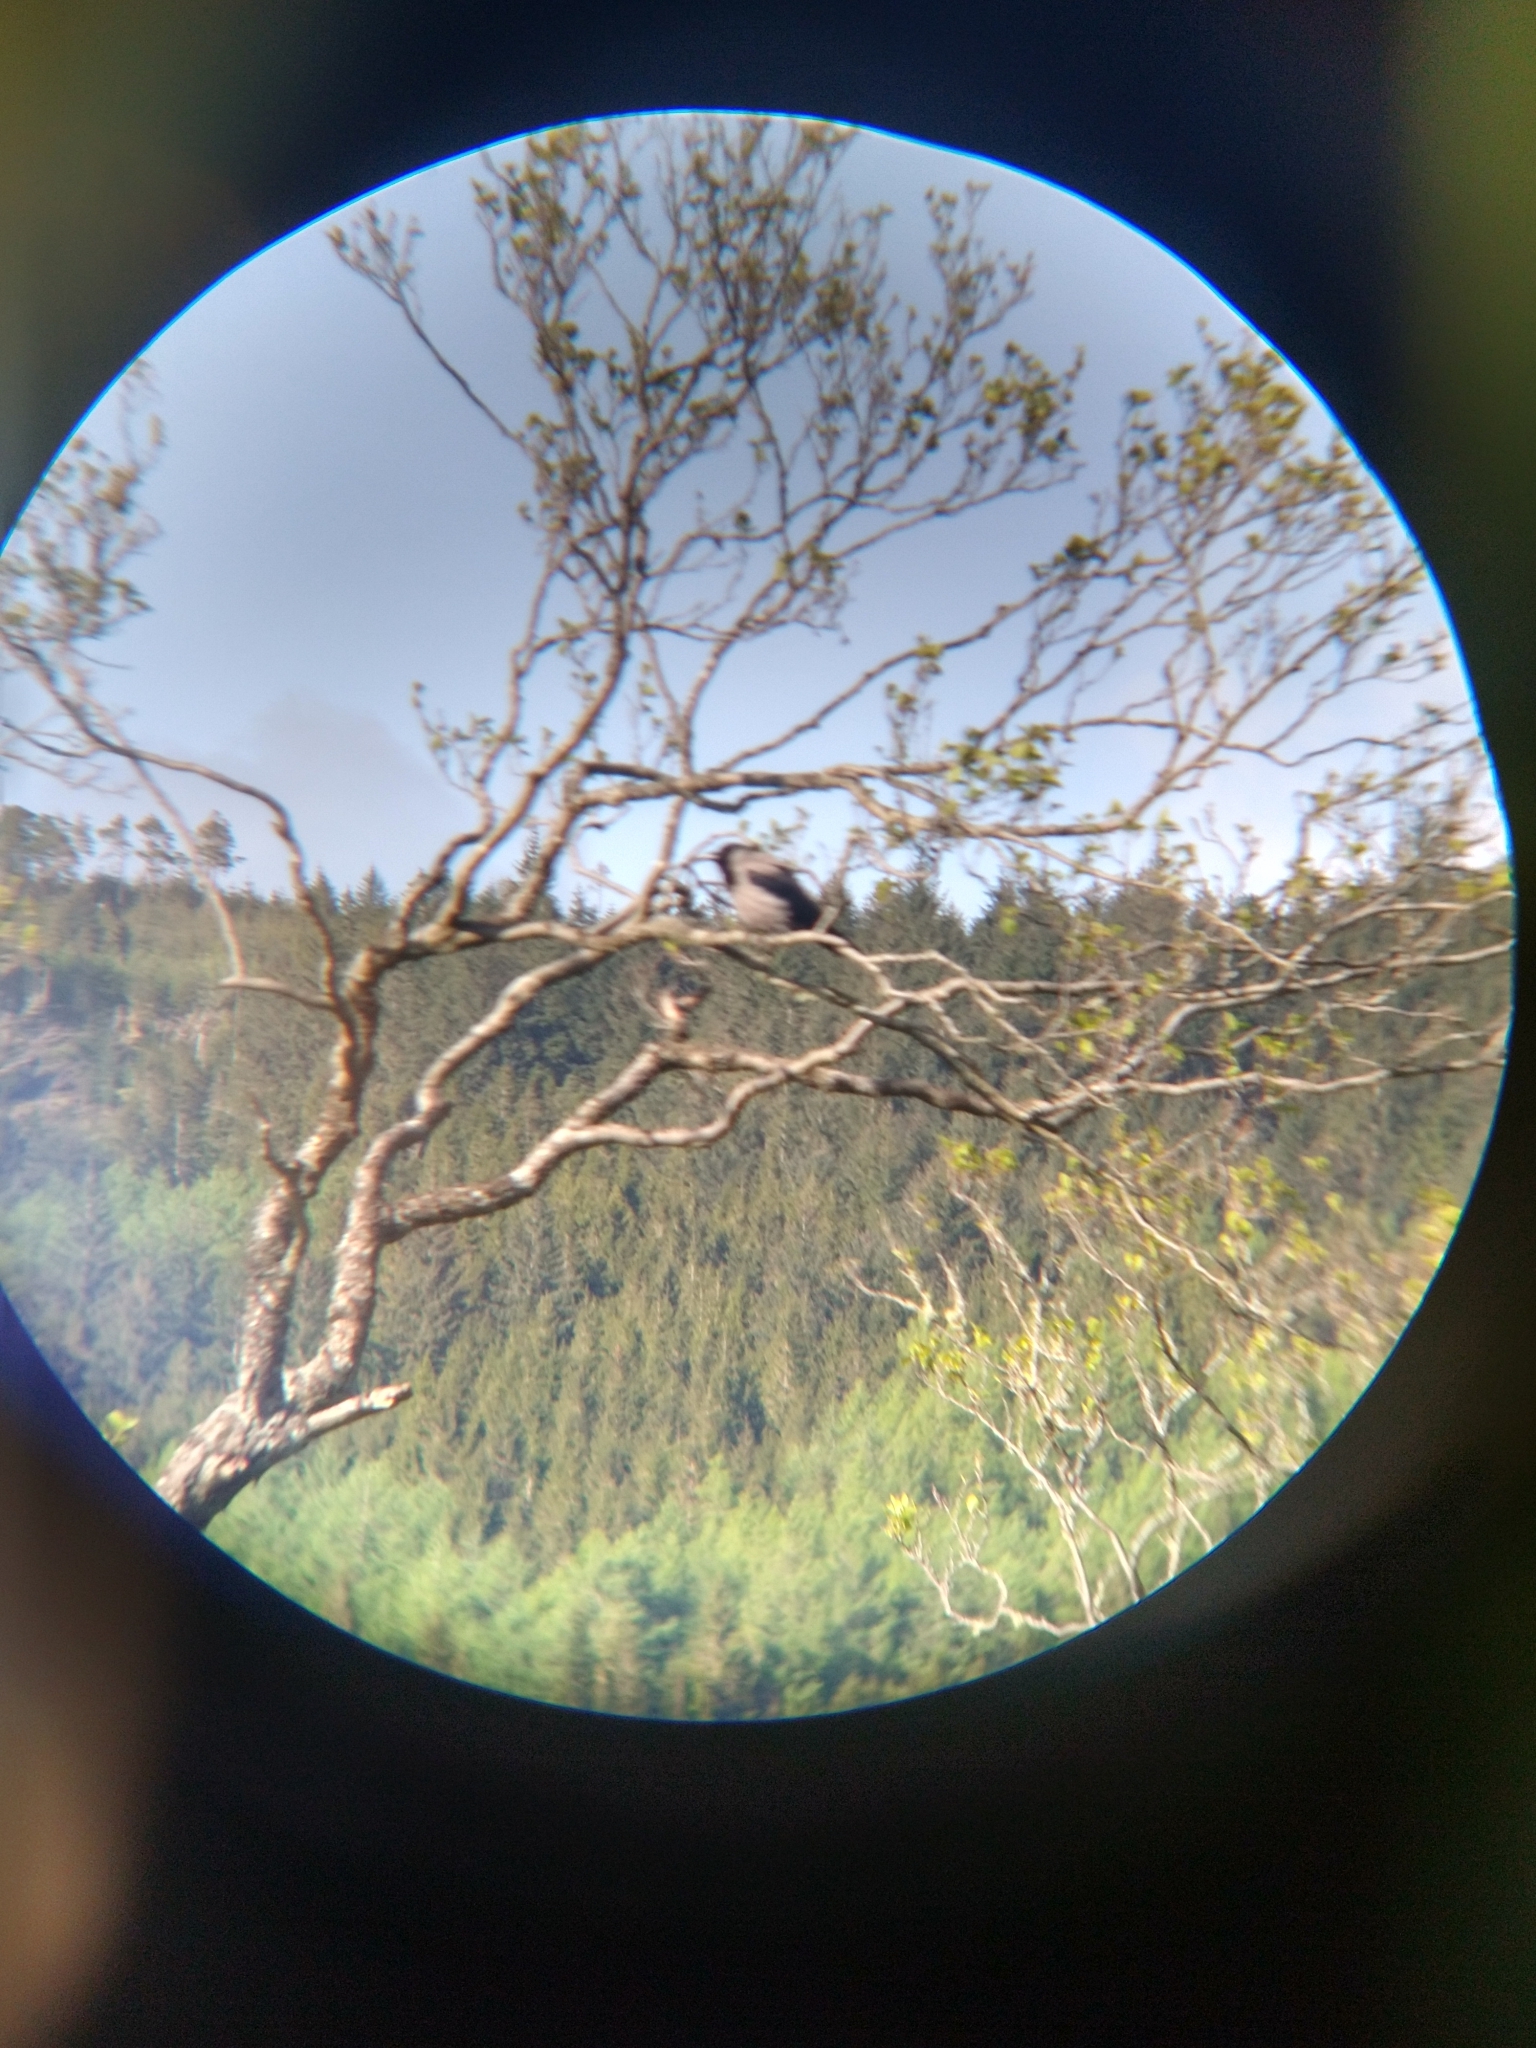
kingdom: Animalia
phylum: Chordata
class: Aves
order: Passeriformes
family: Corvidae
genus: Corvus
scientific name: Corvus cornix
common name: Hooded crow
